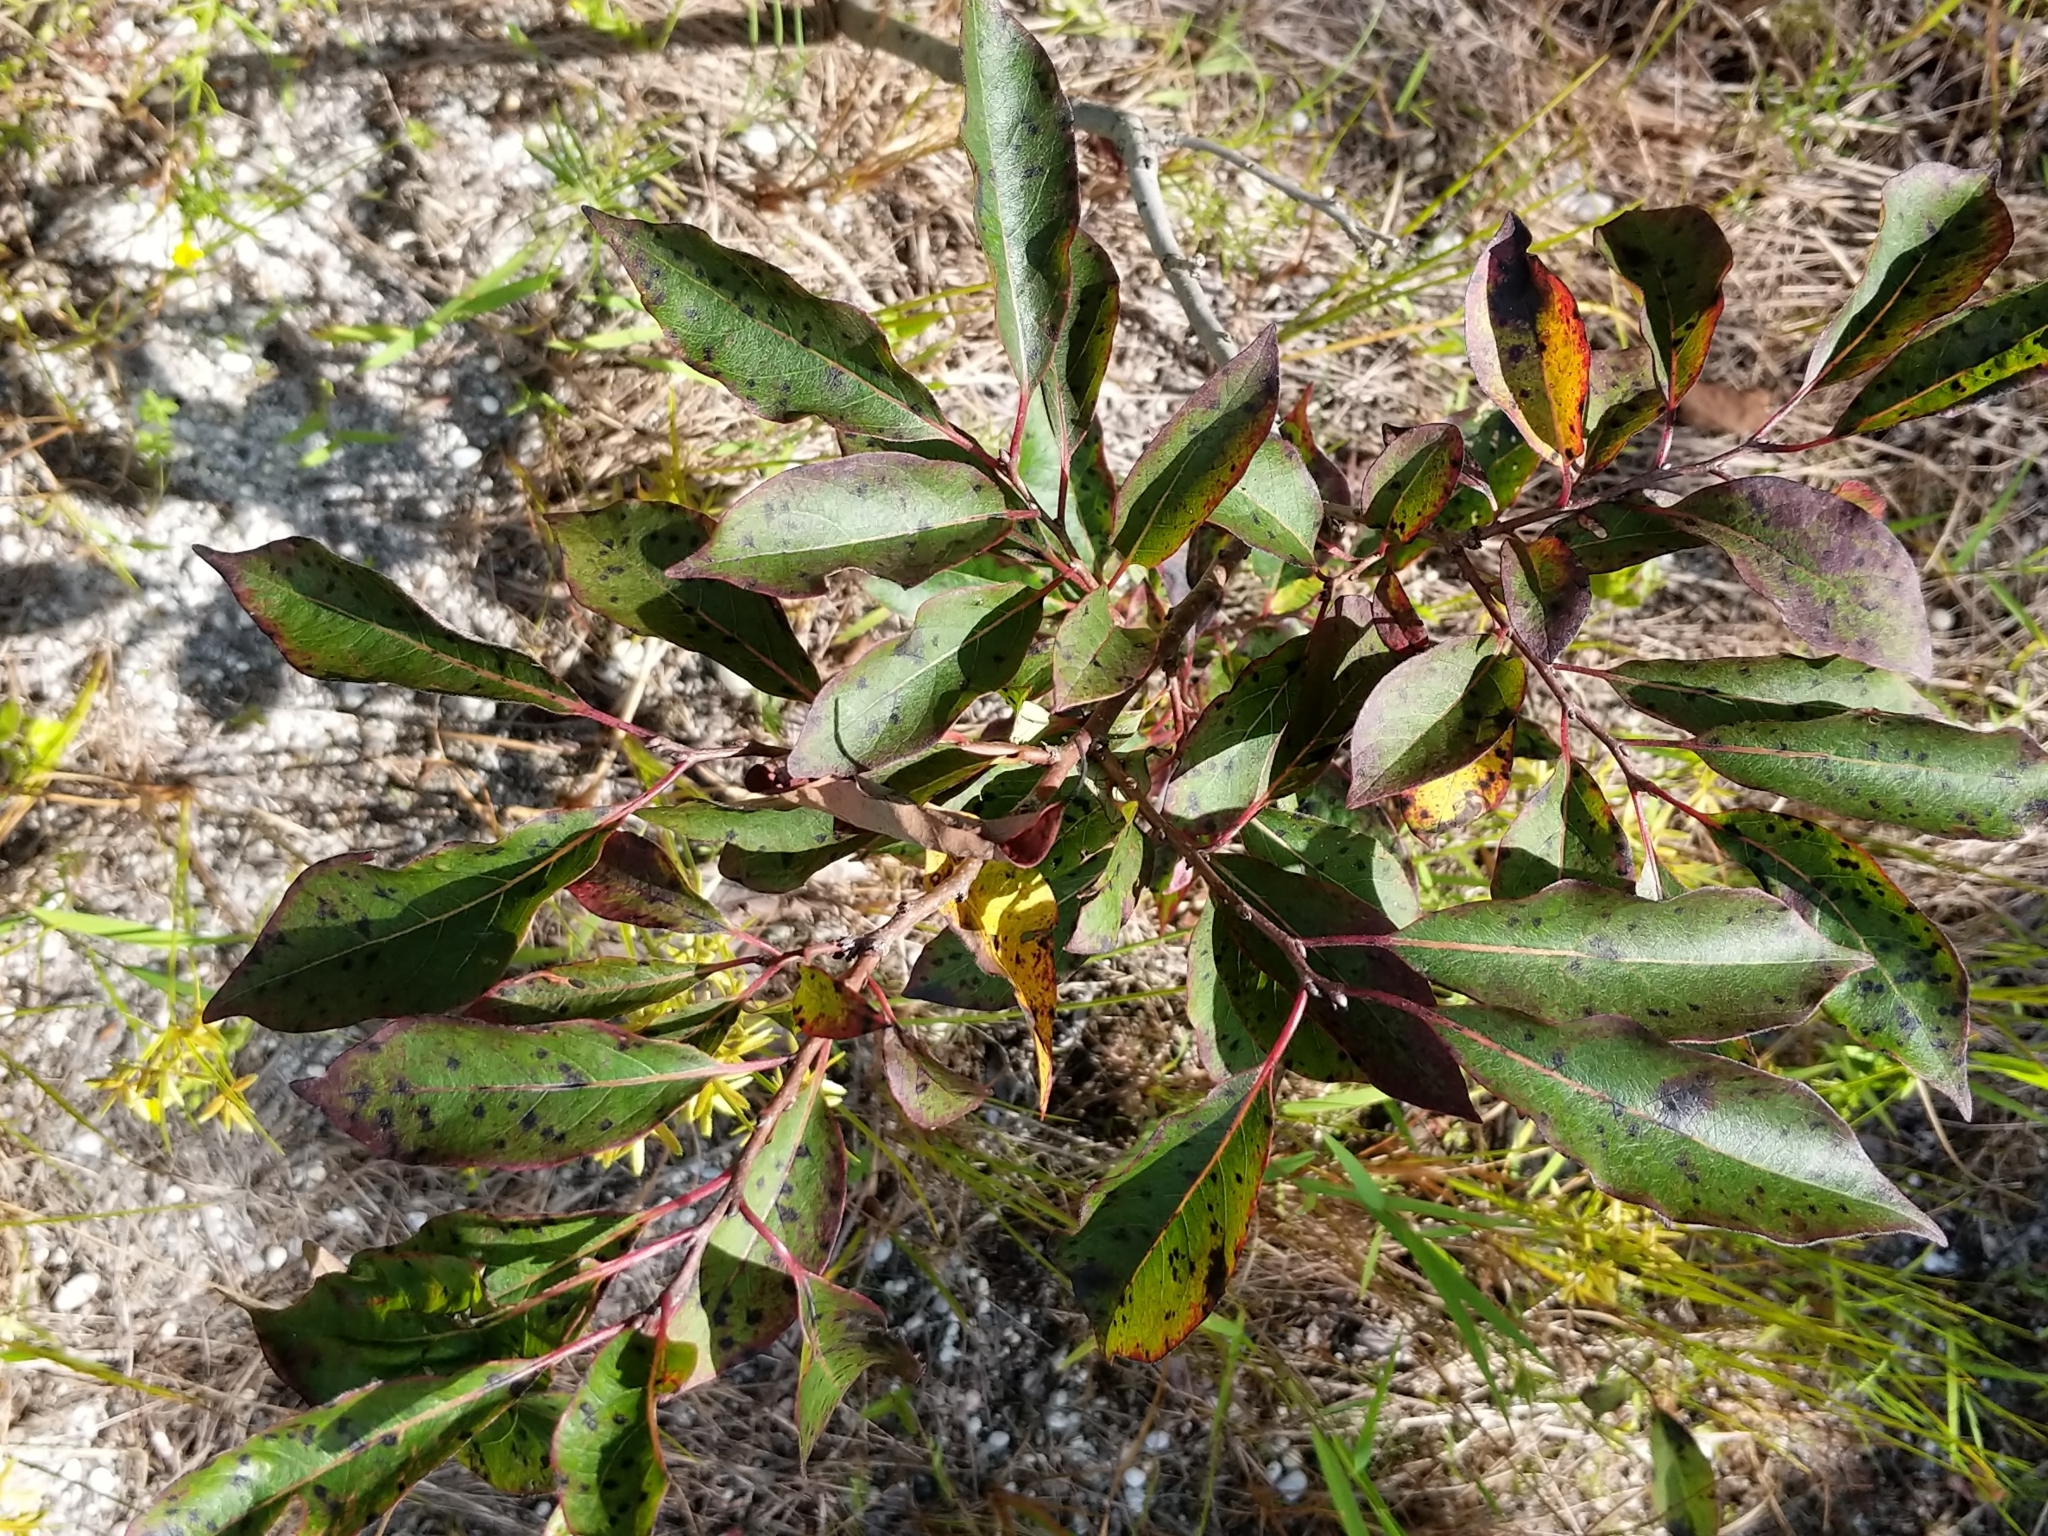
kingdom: Plantae
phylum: Tracheophyta
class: Magnoliopsida
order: Ericales
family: Ebenaceae
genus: Diospyros
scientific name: Diospyros virginiana
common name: Persimmon
